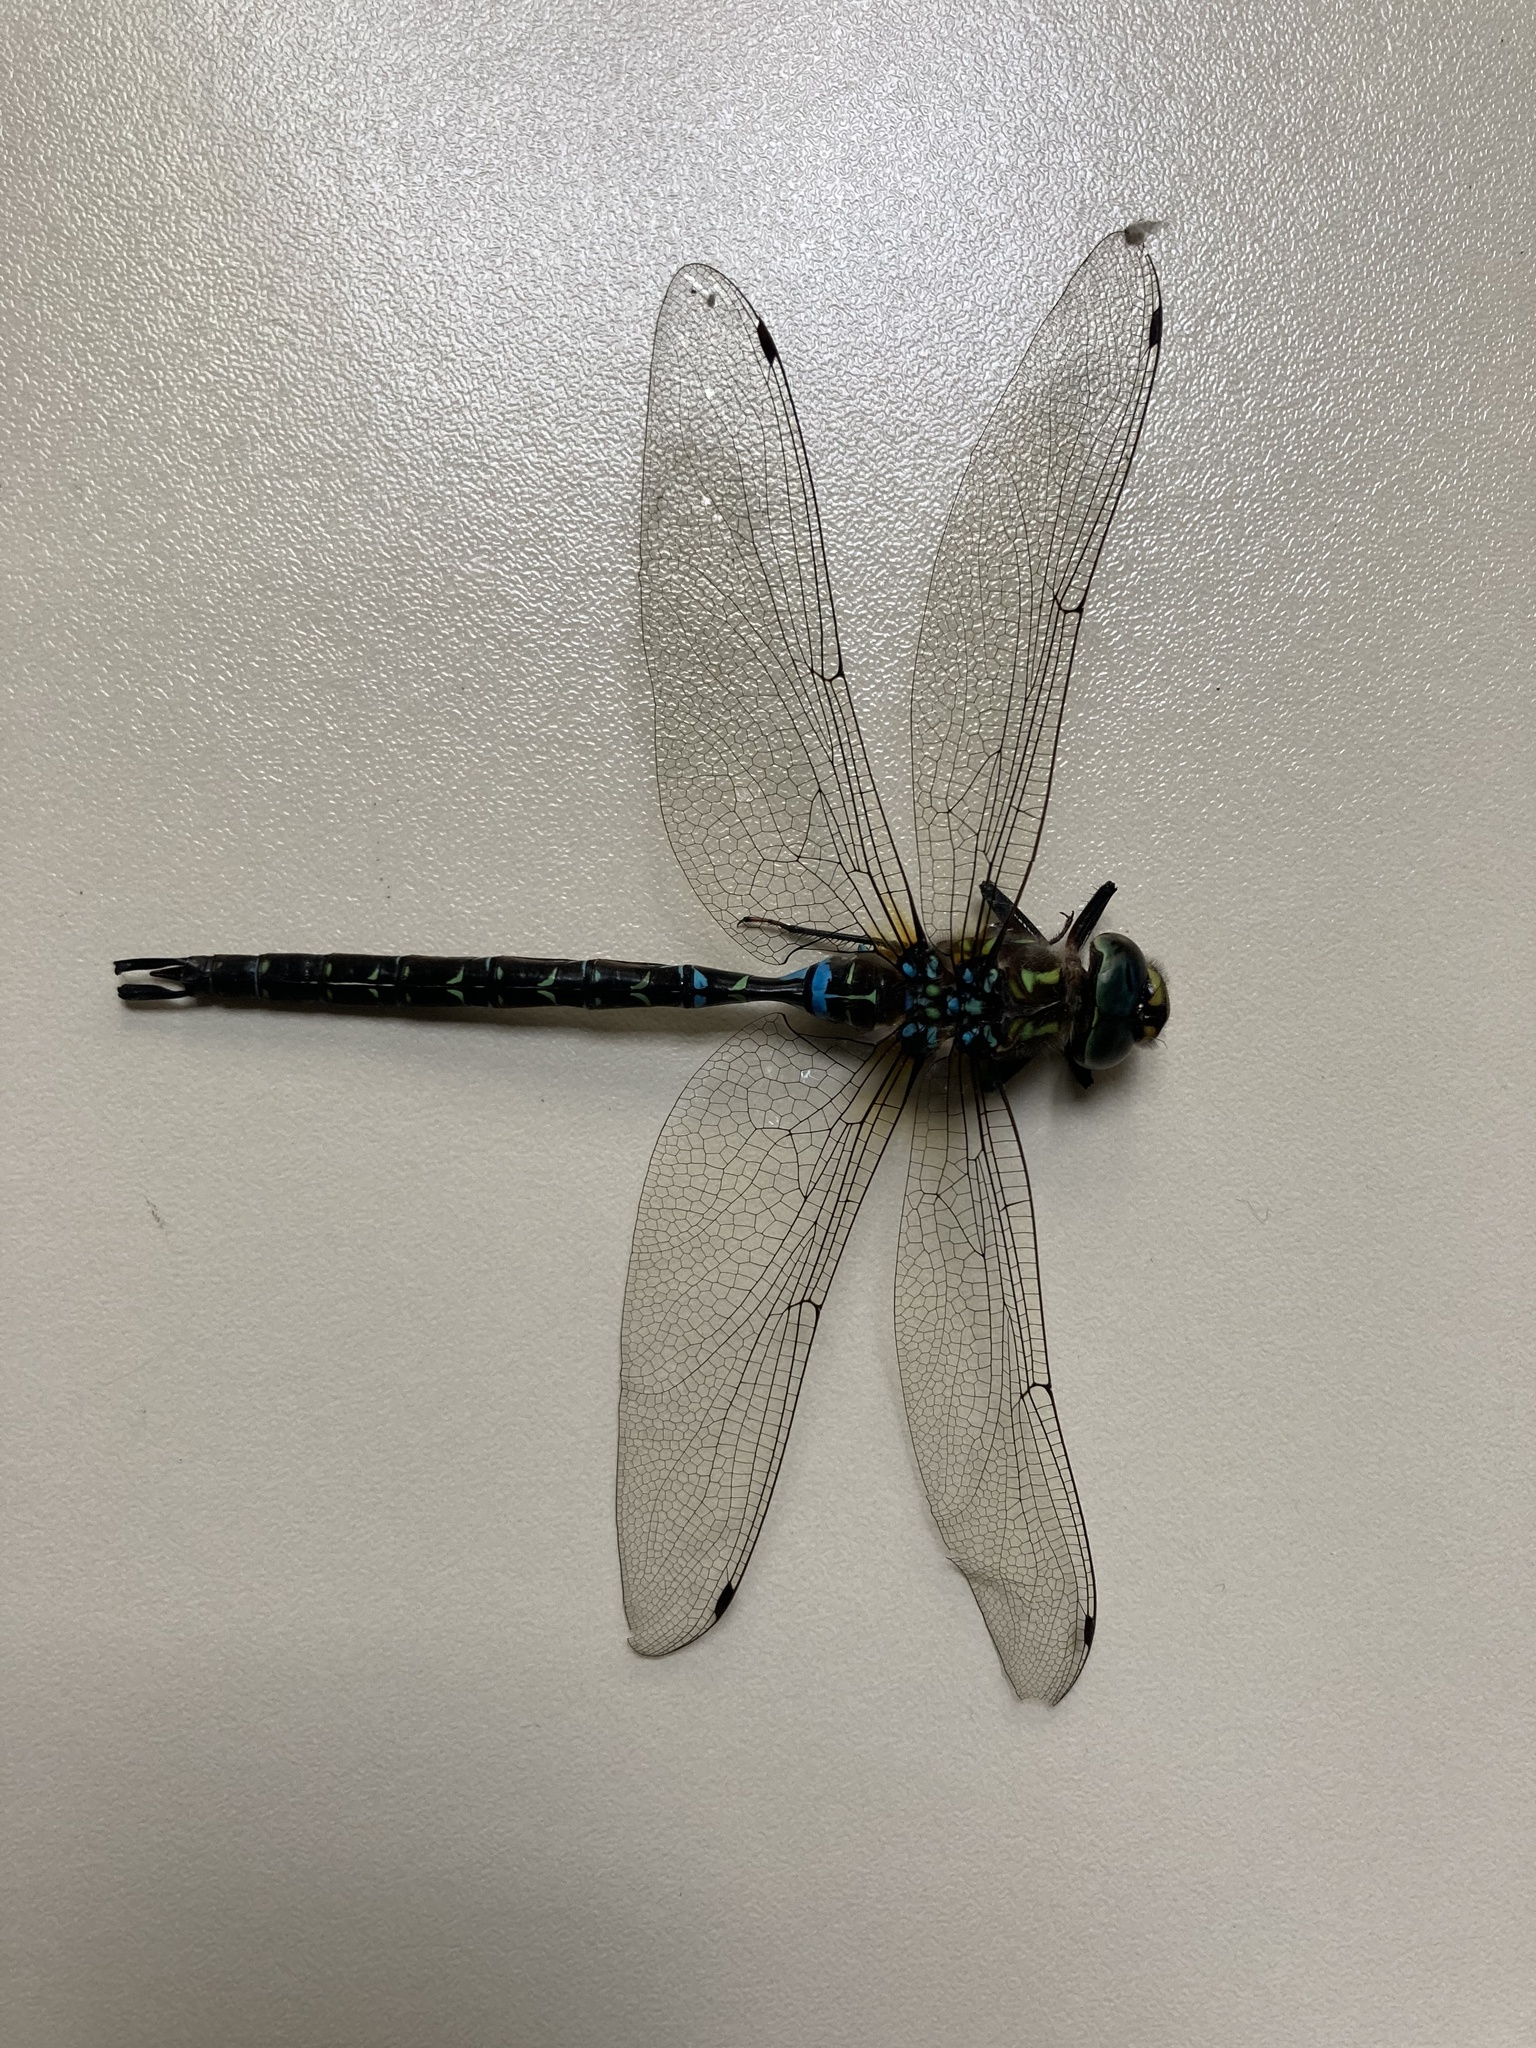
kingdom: Animalia
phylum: Arthropoda
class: Insecta
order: Odonata
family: Aeshnidae
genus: Oplonaeschna
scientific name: Oplonaeschna armata
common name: Riffle darner
